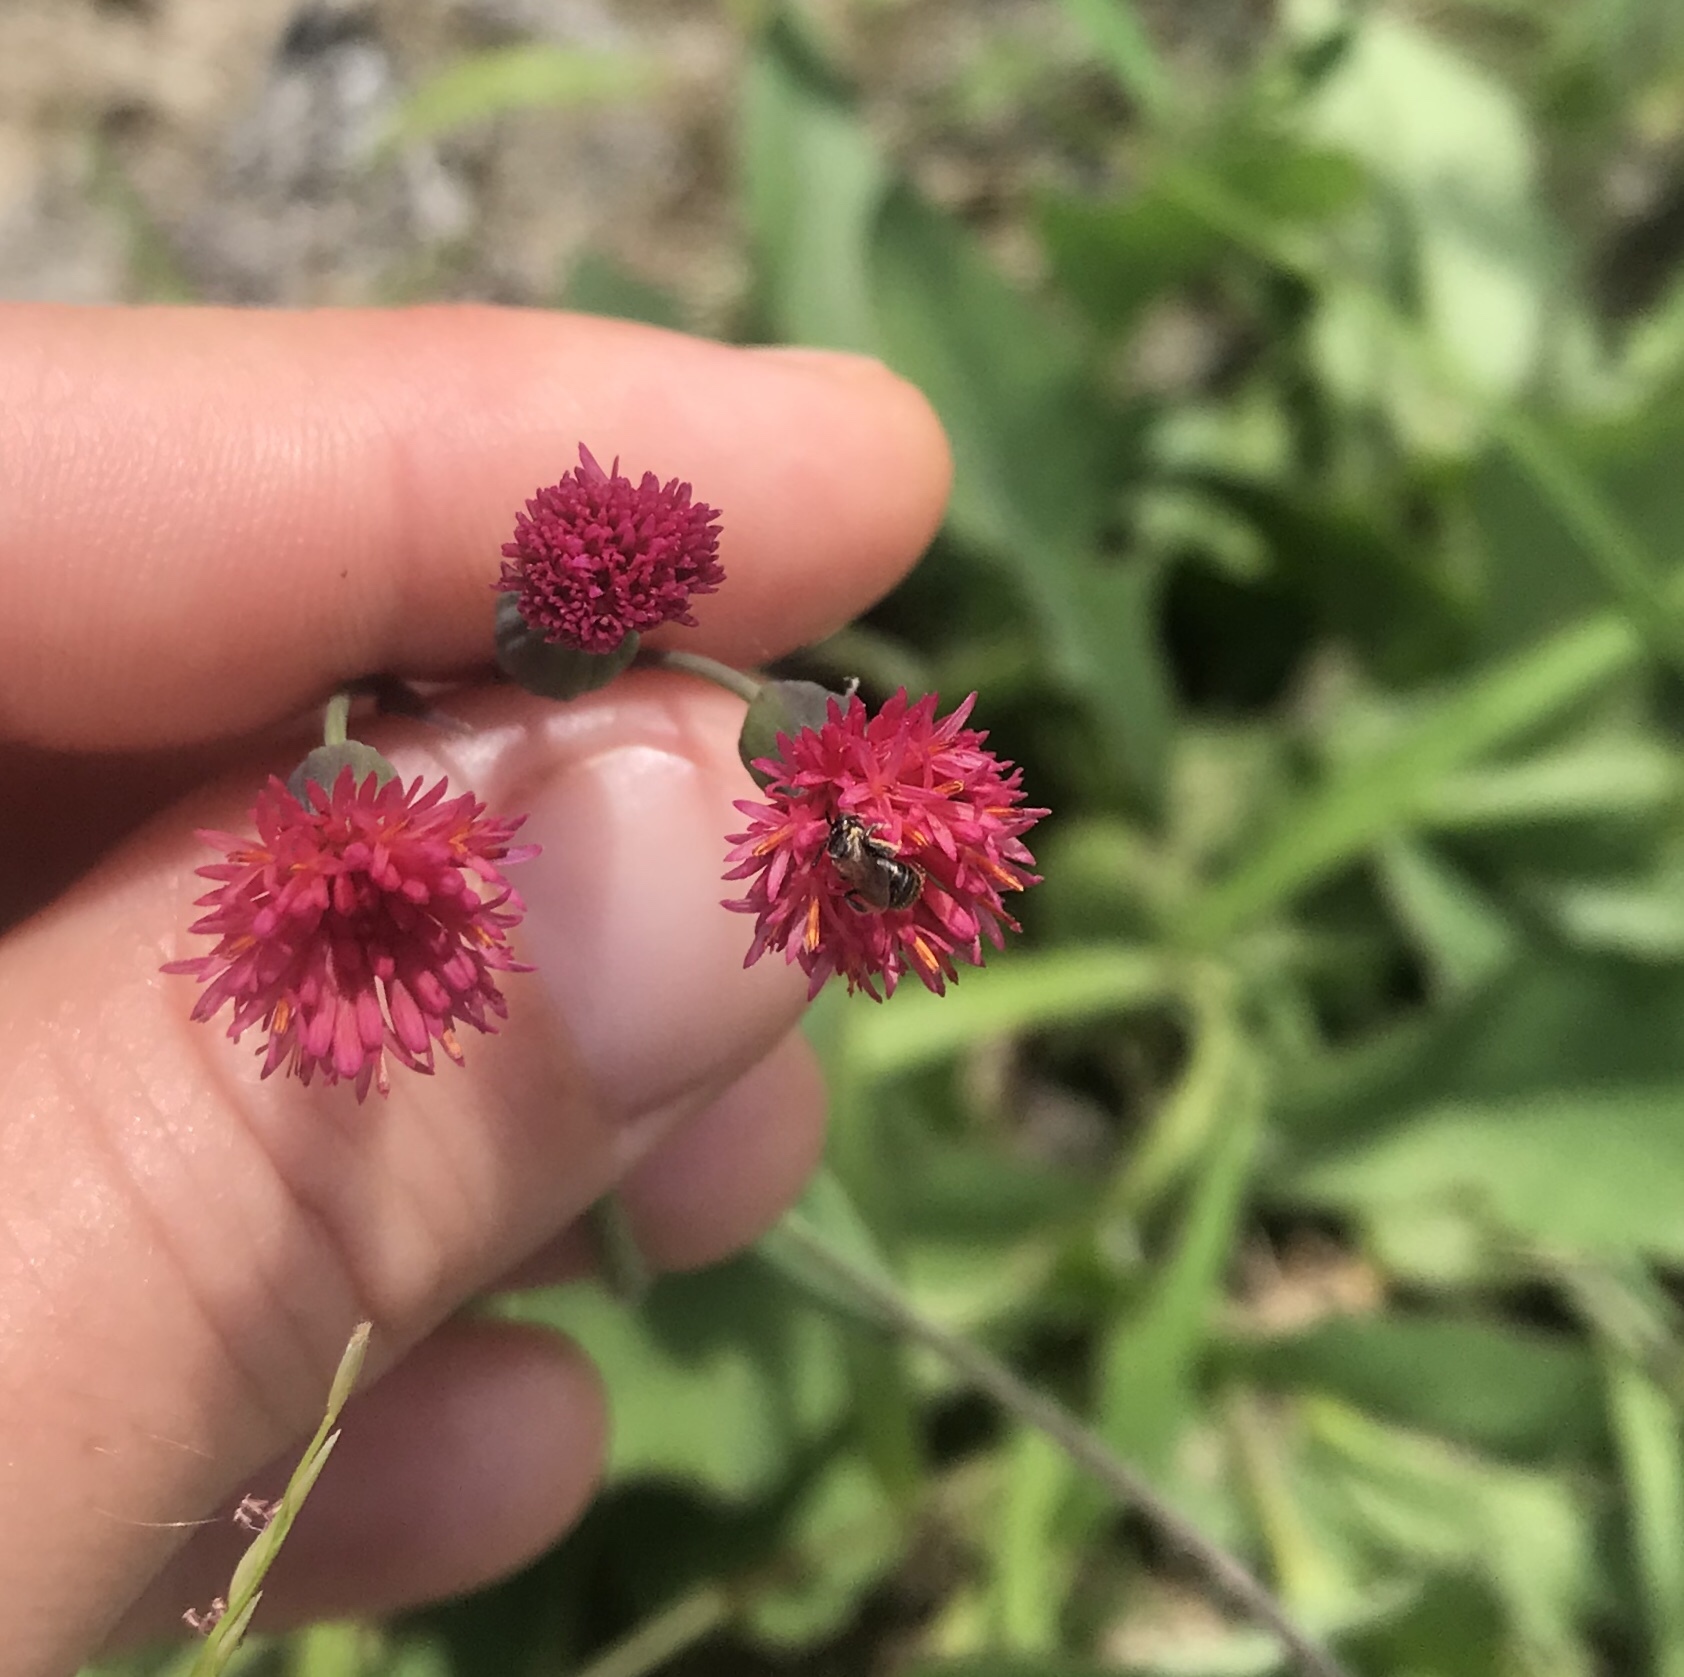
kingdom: Plantae
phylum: Tracheophyta
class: Magnoliopsida
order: Asterales
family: Asteraceae
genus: Emilia
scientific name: Emilia fosbergii
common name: Florida tasselflower
